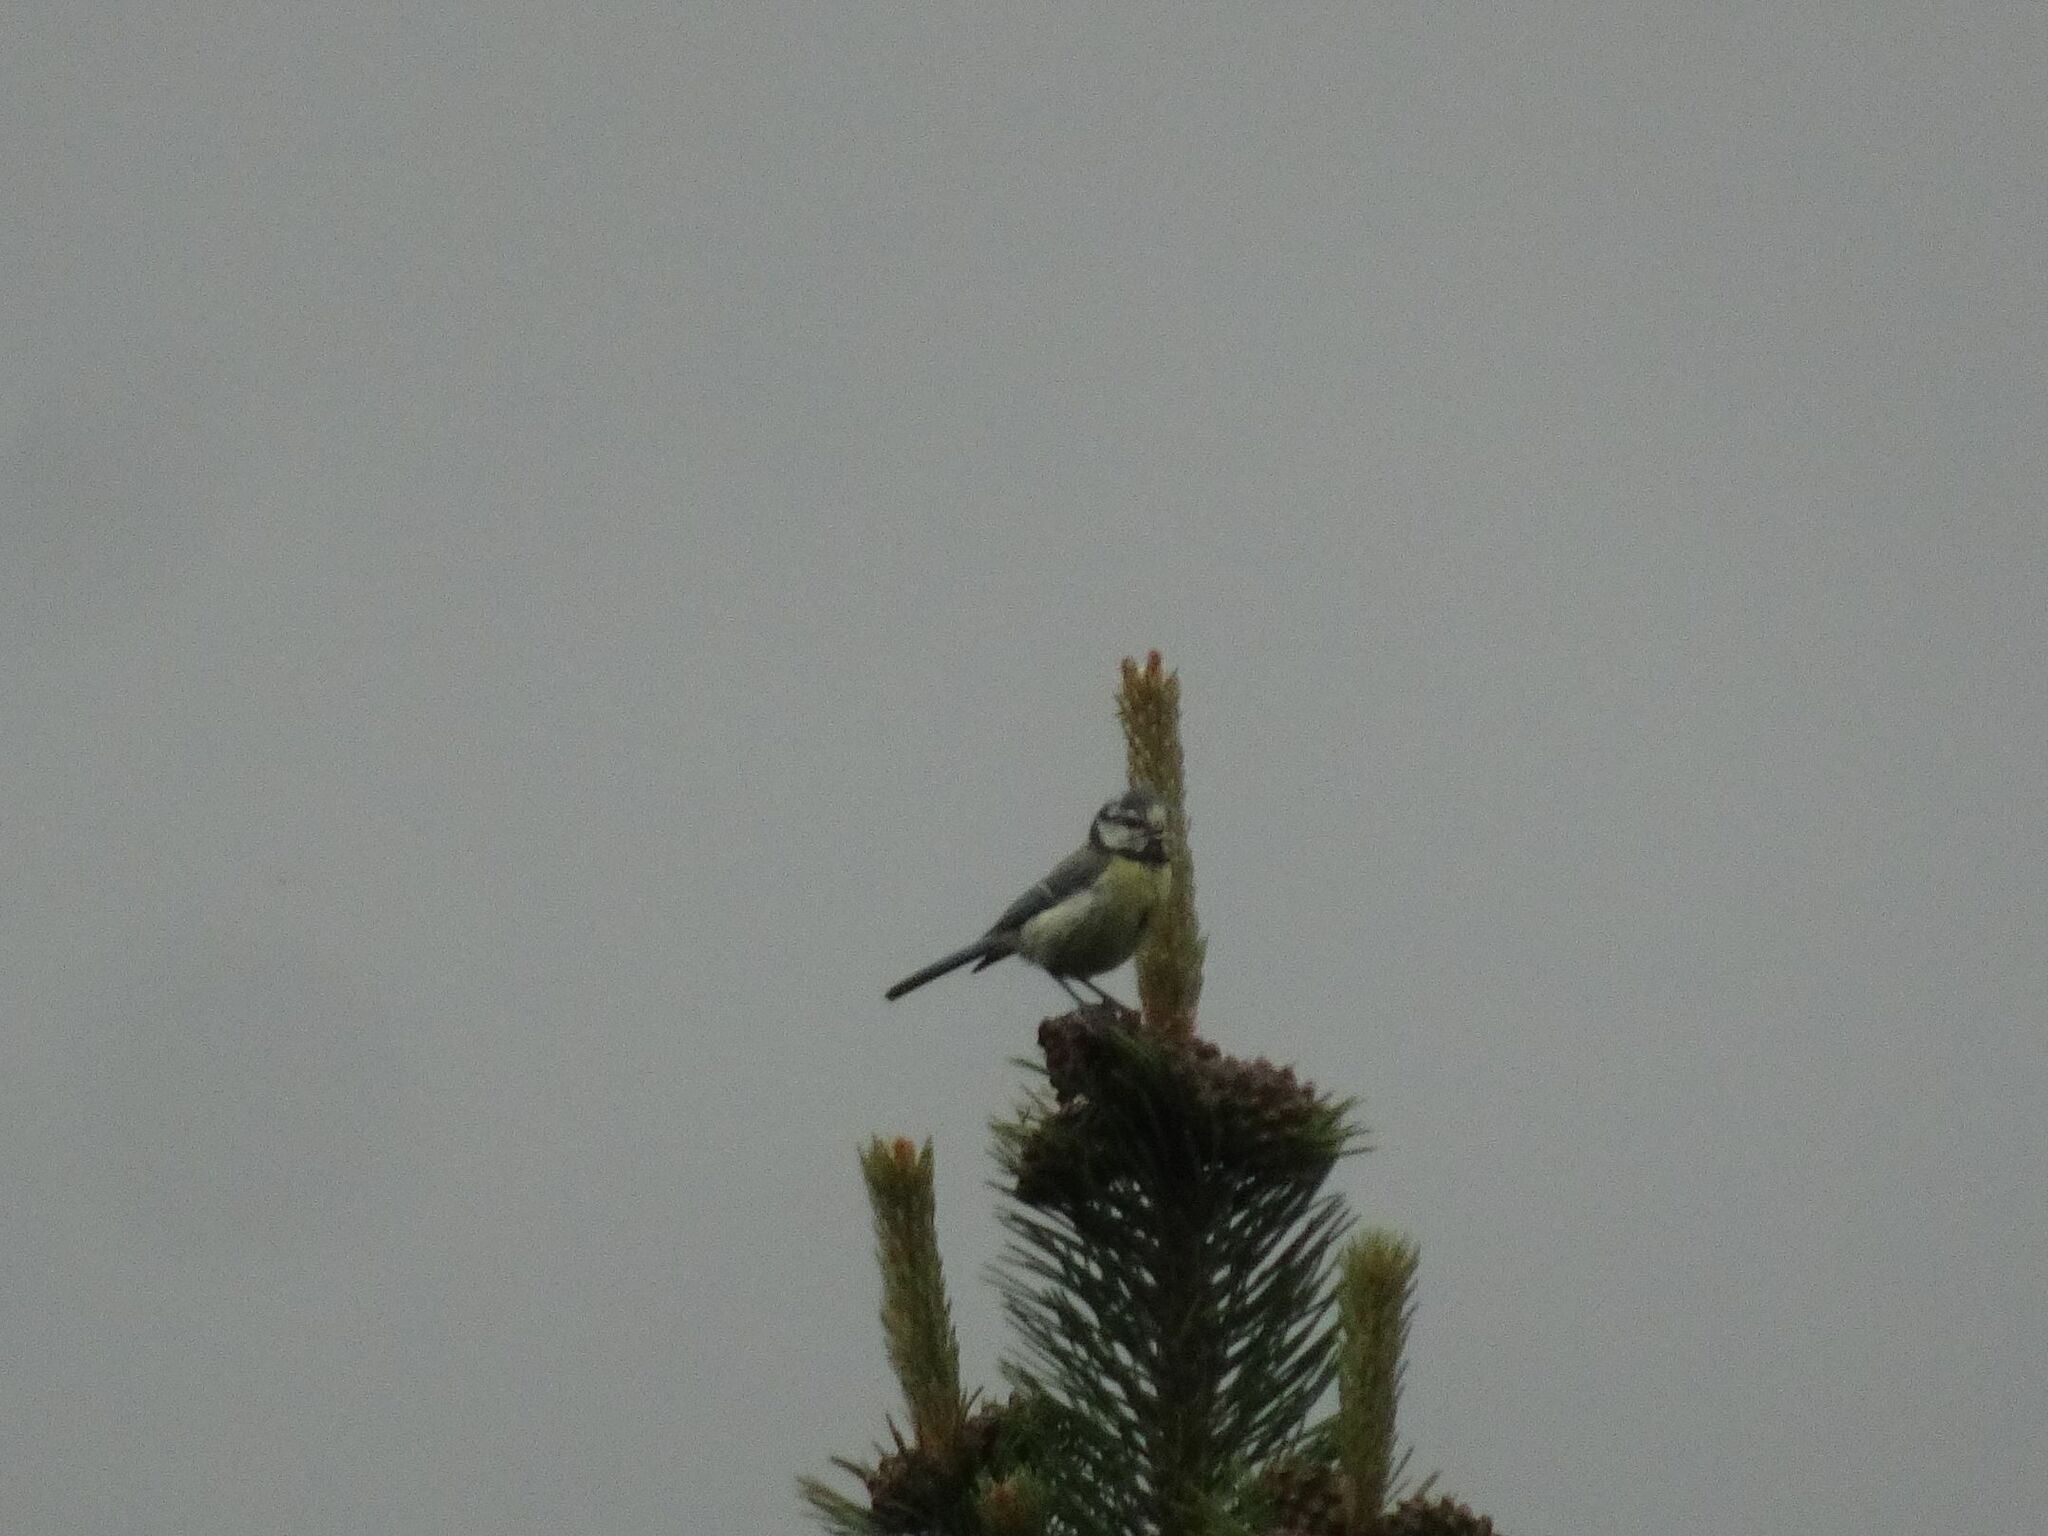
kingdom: Animalia
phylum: Chordata
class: Aves
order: Passeriformes
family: Paridae
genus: Cyanistes
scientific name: Cyanistes caeruleus
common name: Eurasian blue tit
